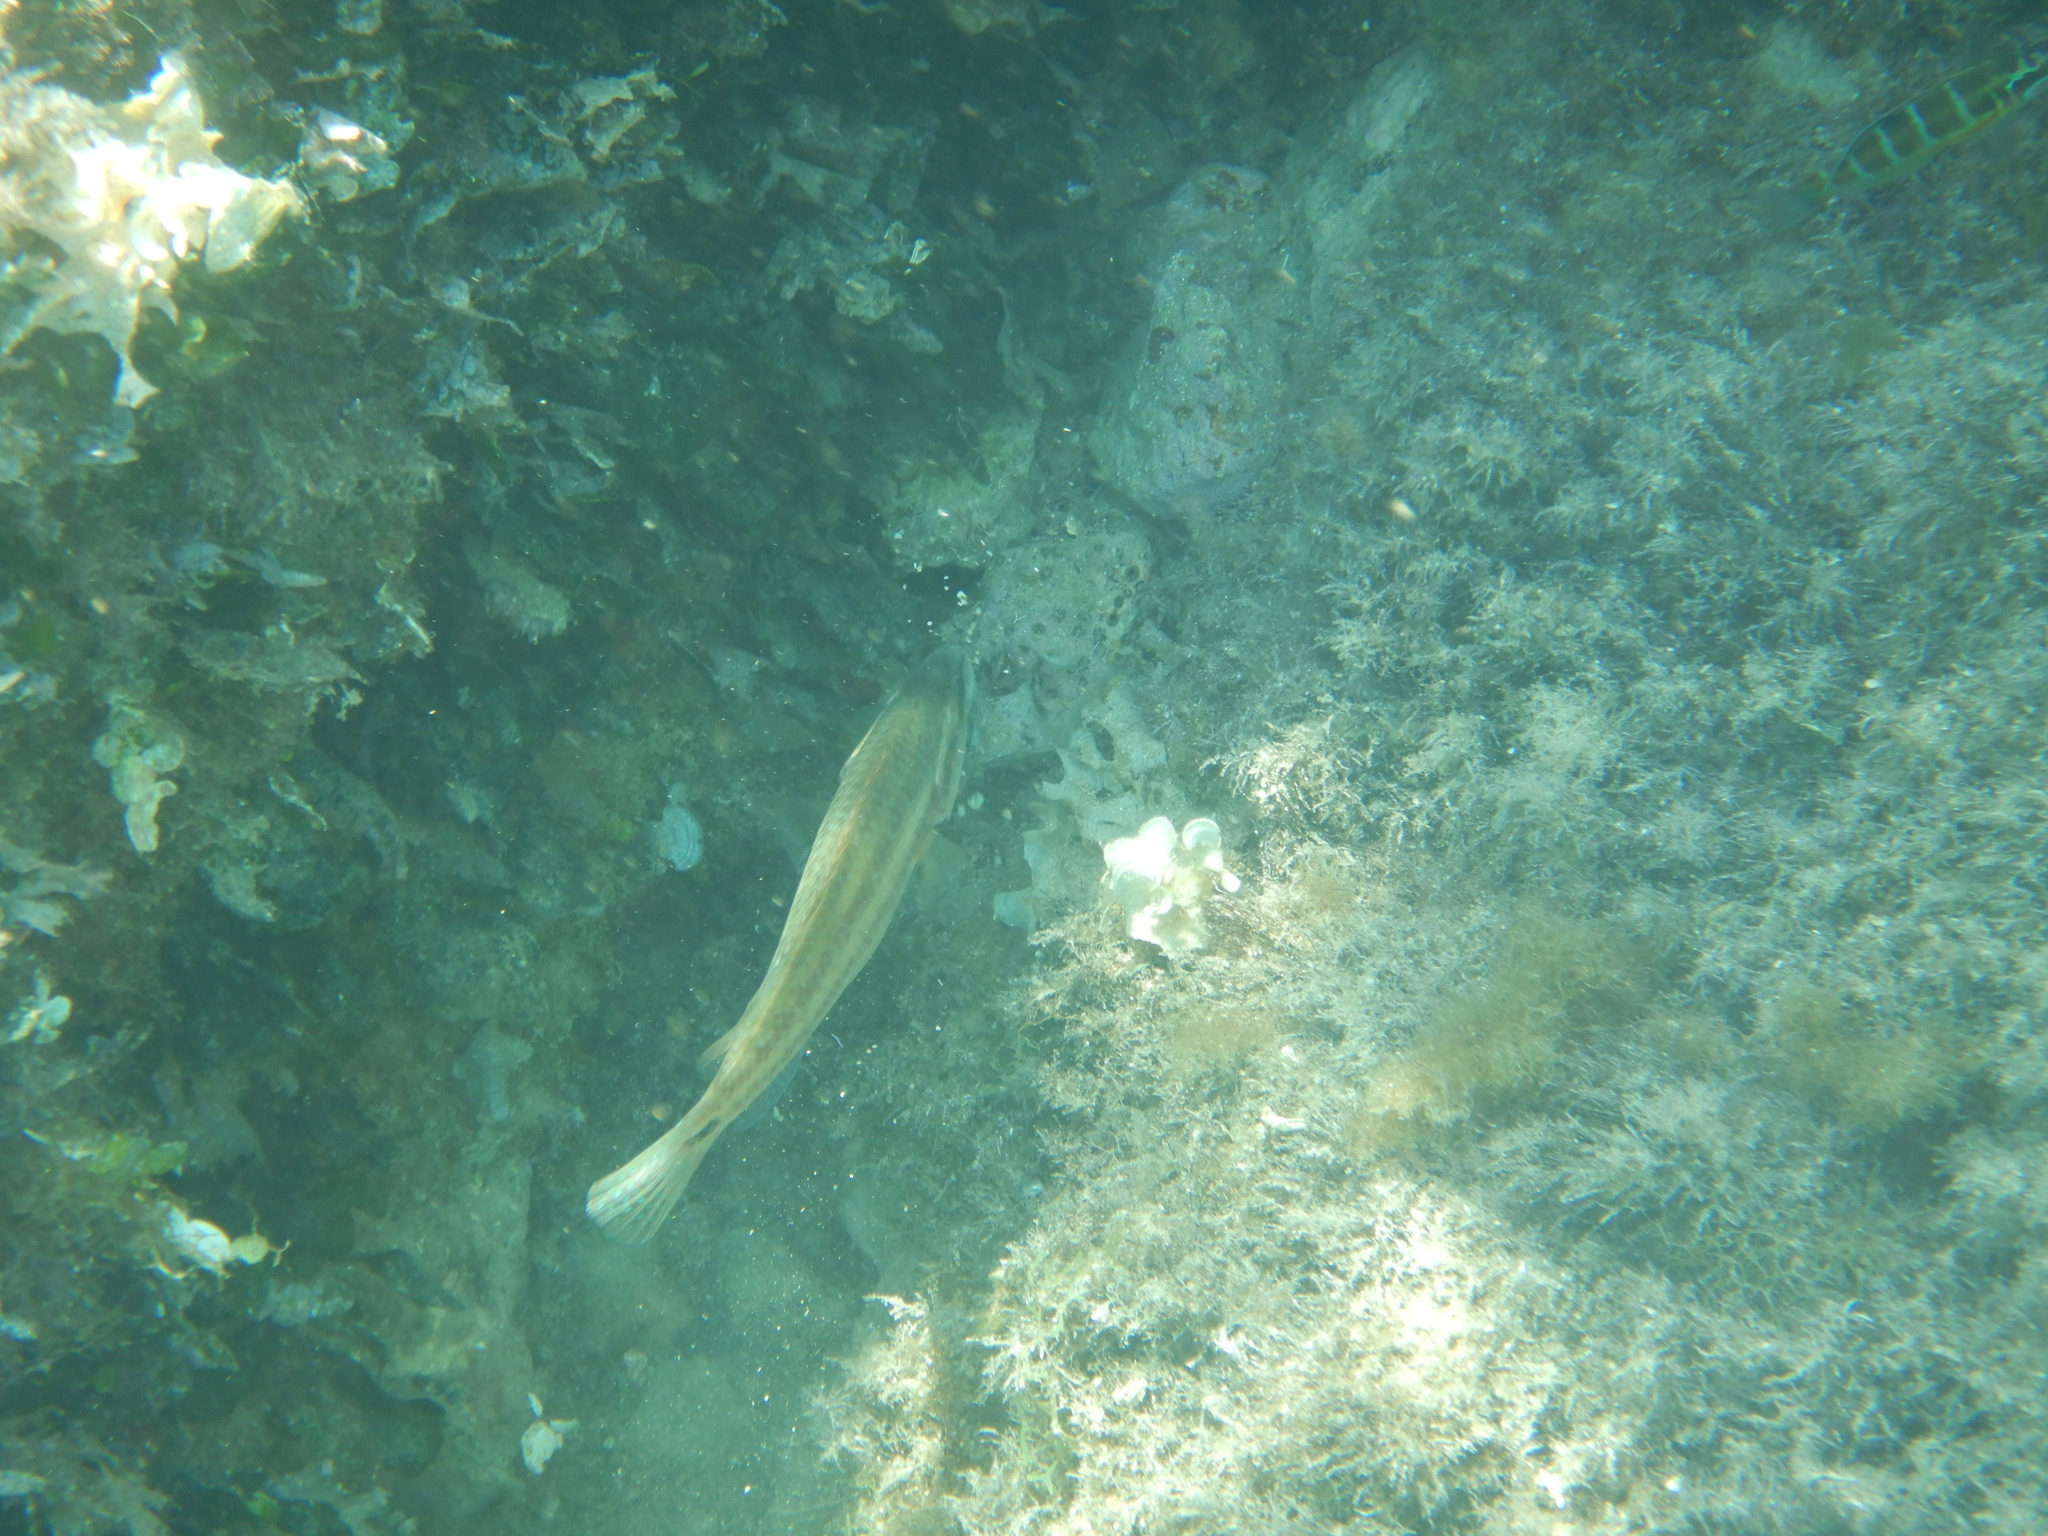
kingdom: Animalia
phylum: Chordata
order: Perciformes
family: Labridae
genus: Symphodus
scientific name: Symphodus tinca
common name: Peacock wrasse
